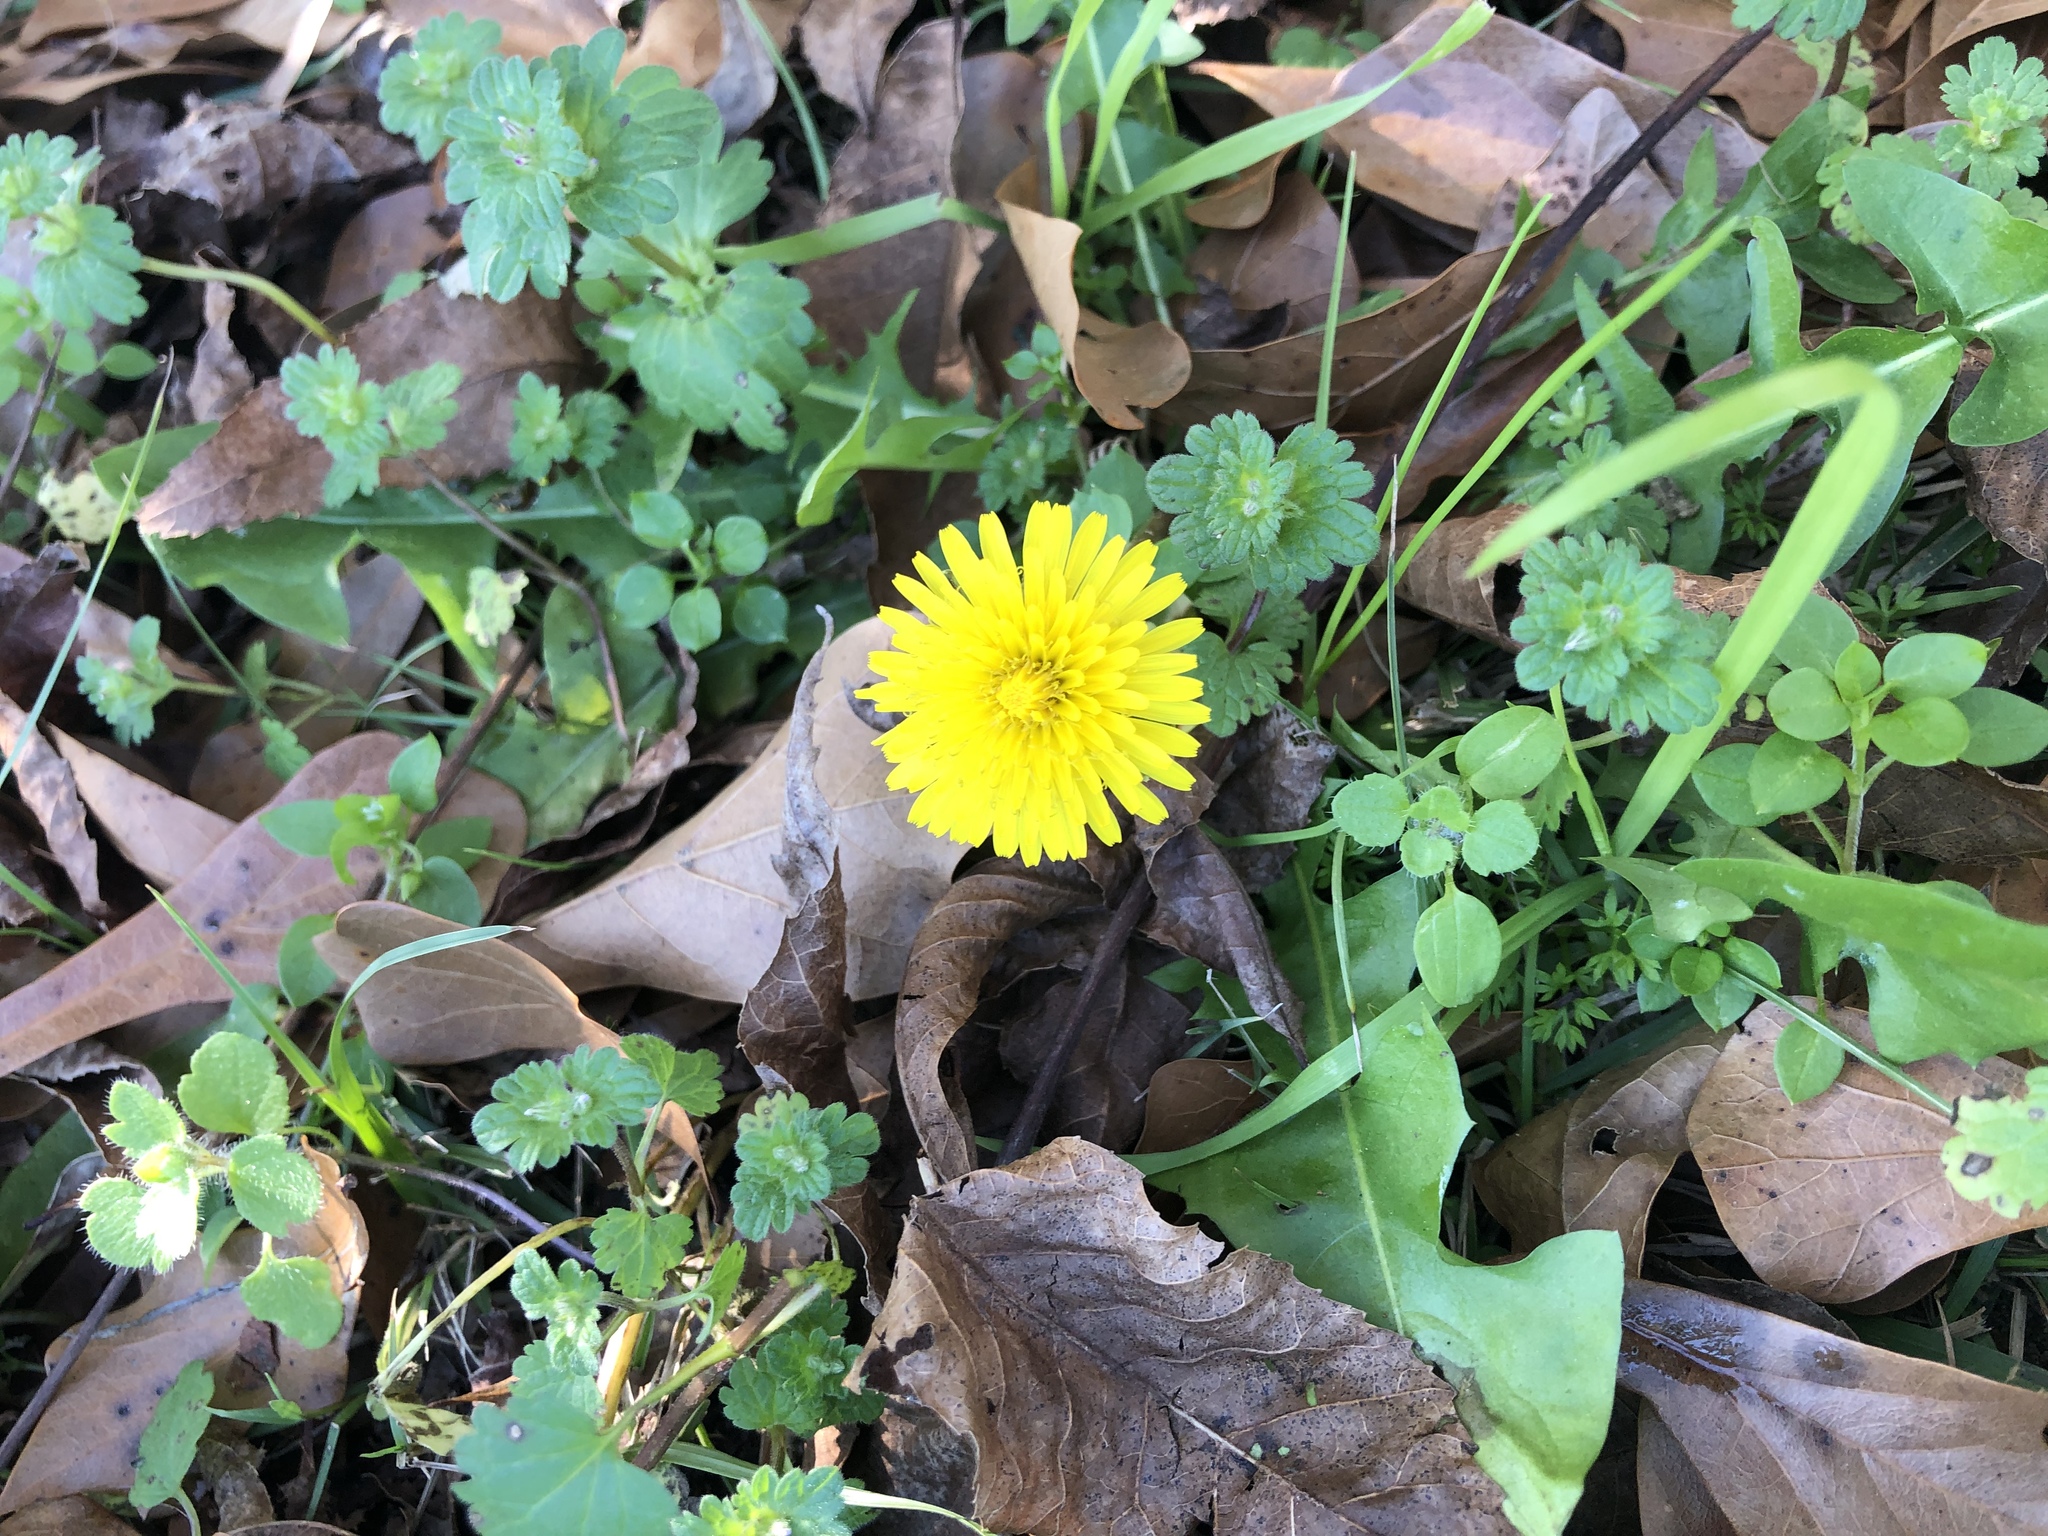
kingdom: Plantae
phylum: Tracheophyta
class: Magnoliopsida
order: Asterales
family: Asteraceae
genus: Taraxacum
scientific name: Taraxacum officinale
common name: Common dandelion
